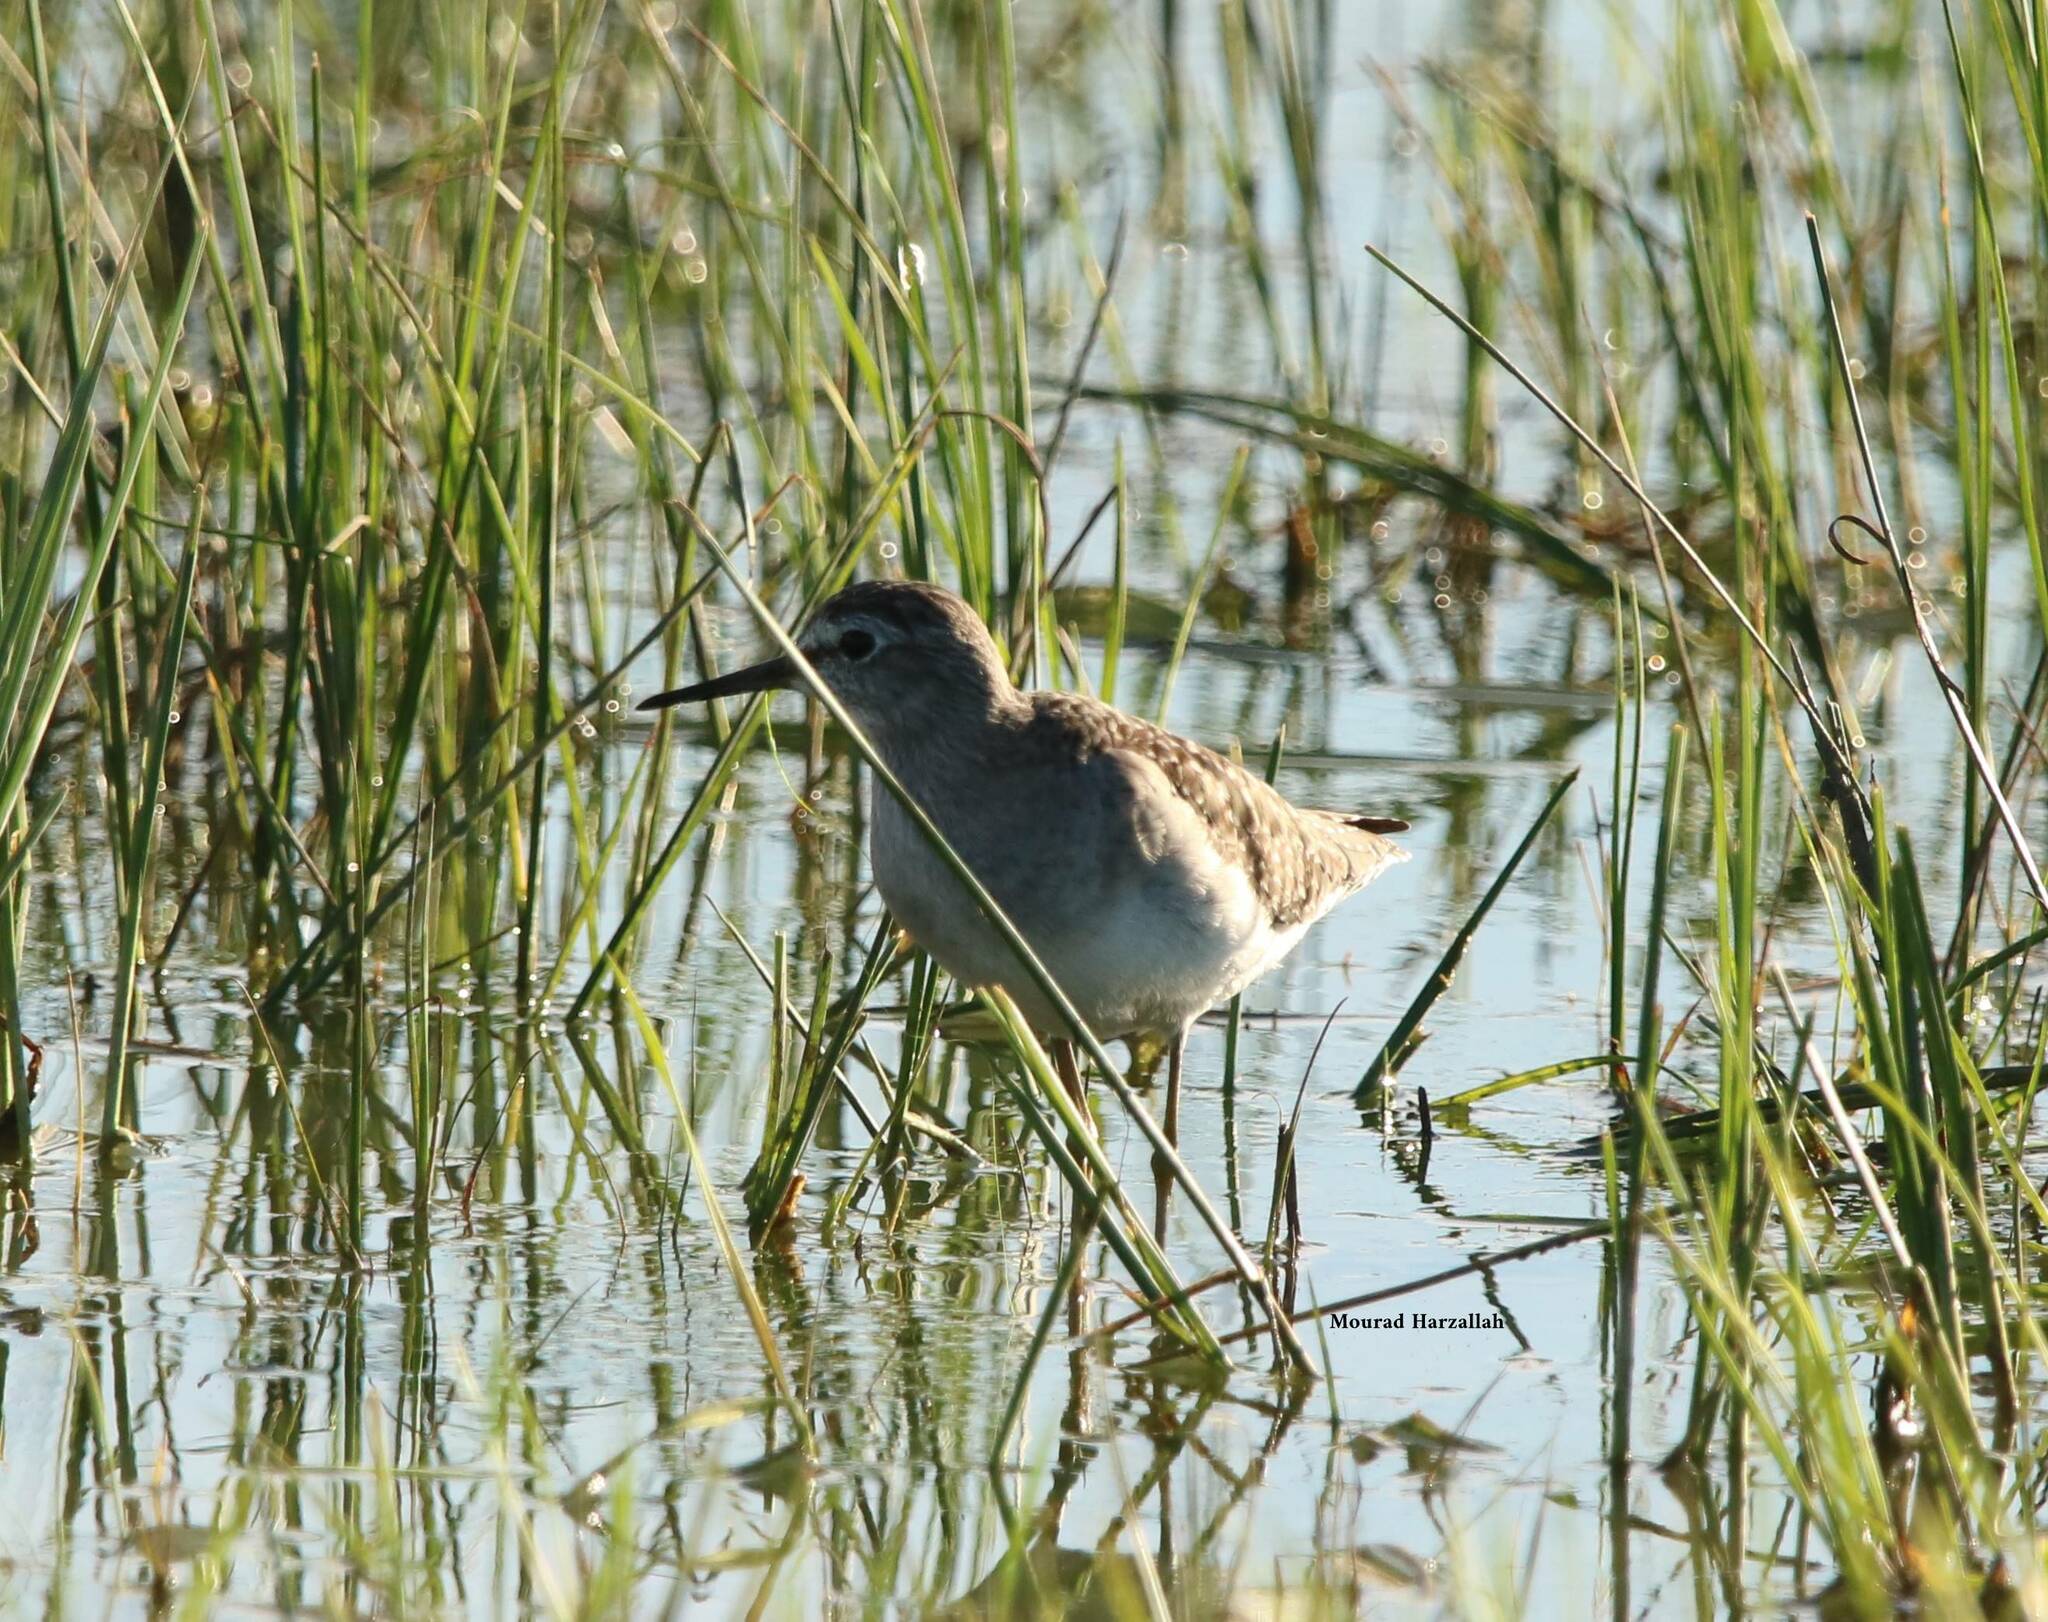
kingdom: Animalia
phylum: Chordata
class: Aves
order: Charadriiformes
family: Scolopacidae
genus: Tringa
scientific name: Tringa glareola
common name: Wood sandpiper
